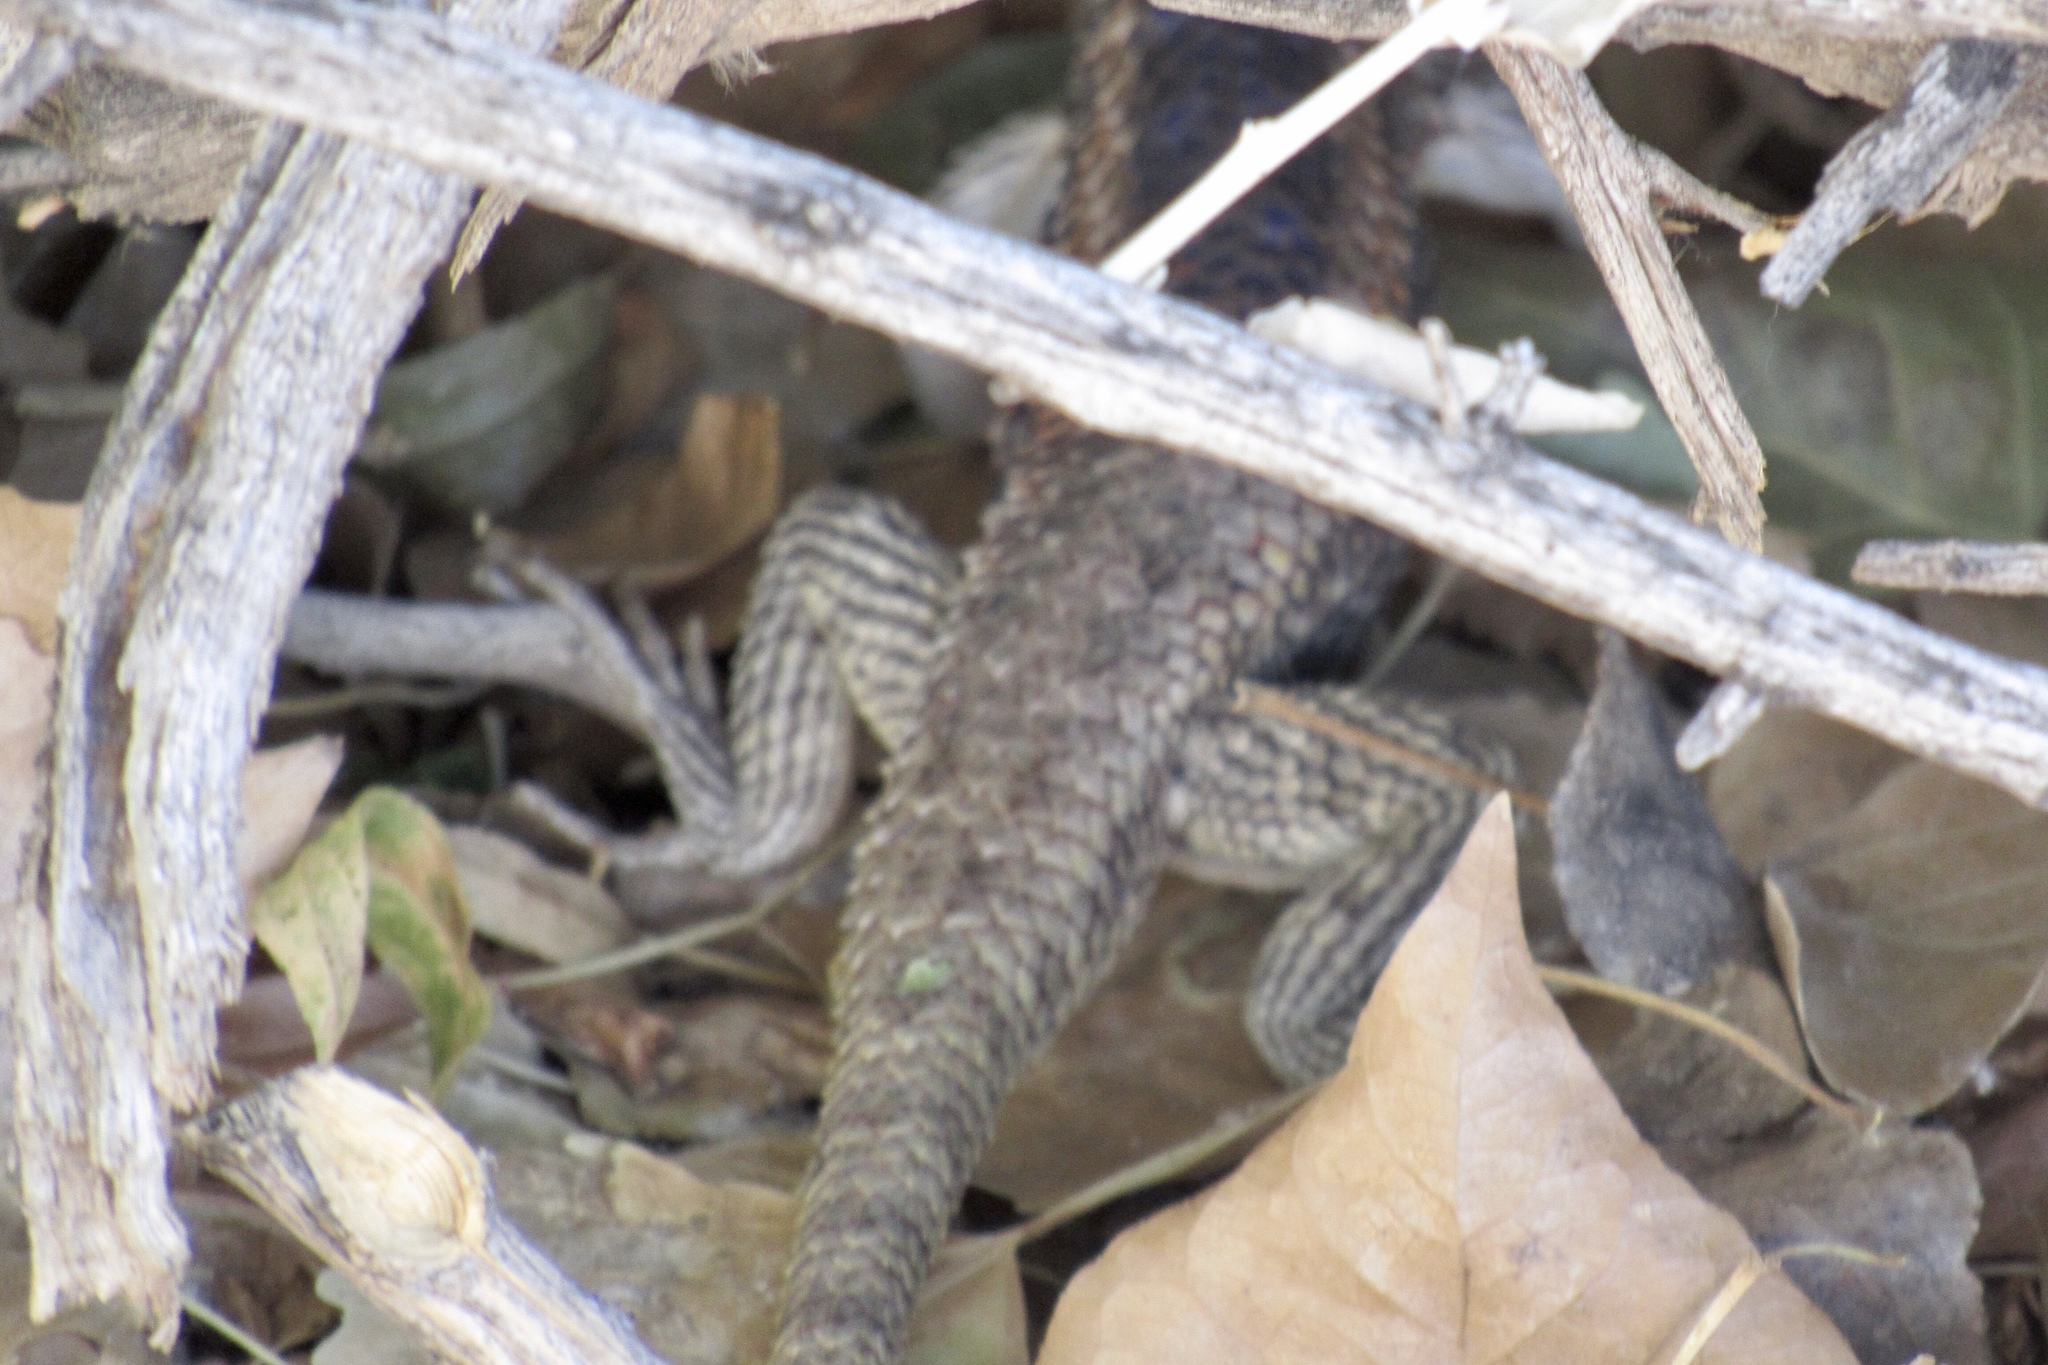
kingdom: Animalia
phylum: Chordata
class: Squamata
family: Phrynosomatidae
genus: Sceloporus
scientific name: Sceloporus magister
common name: Desert spiny lizard
